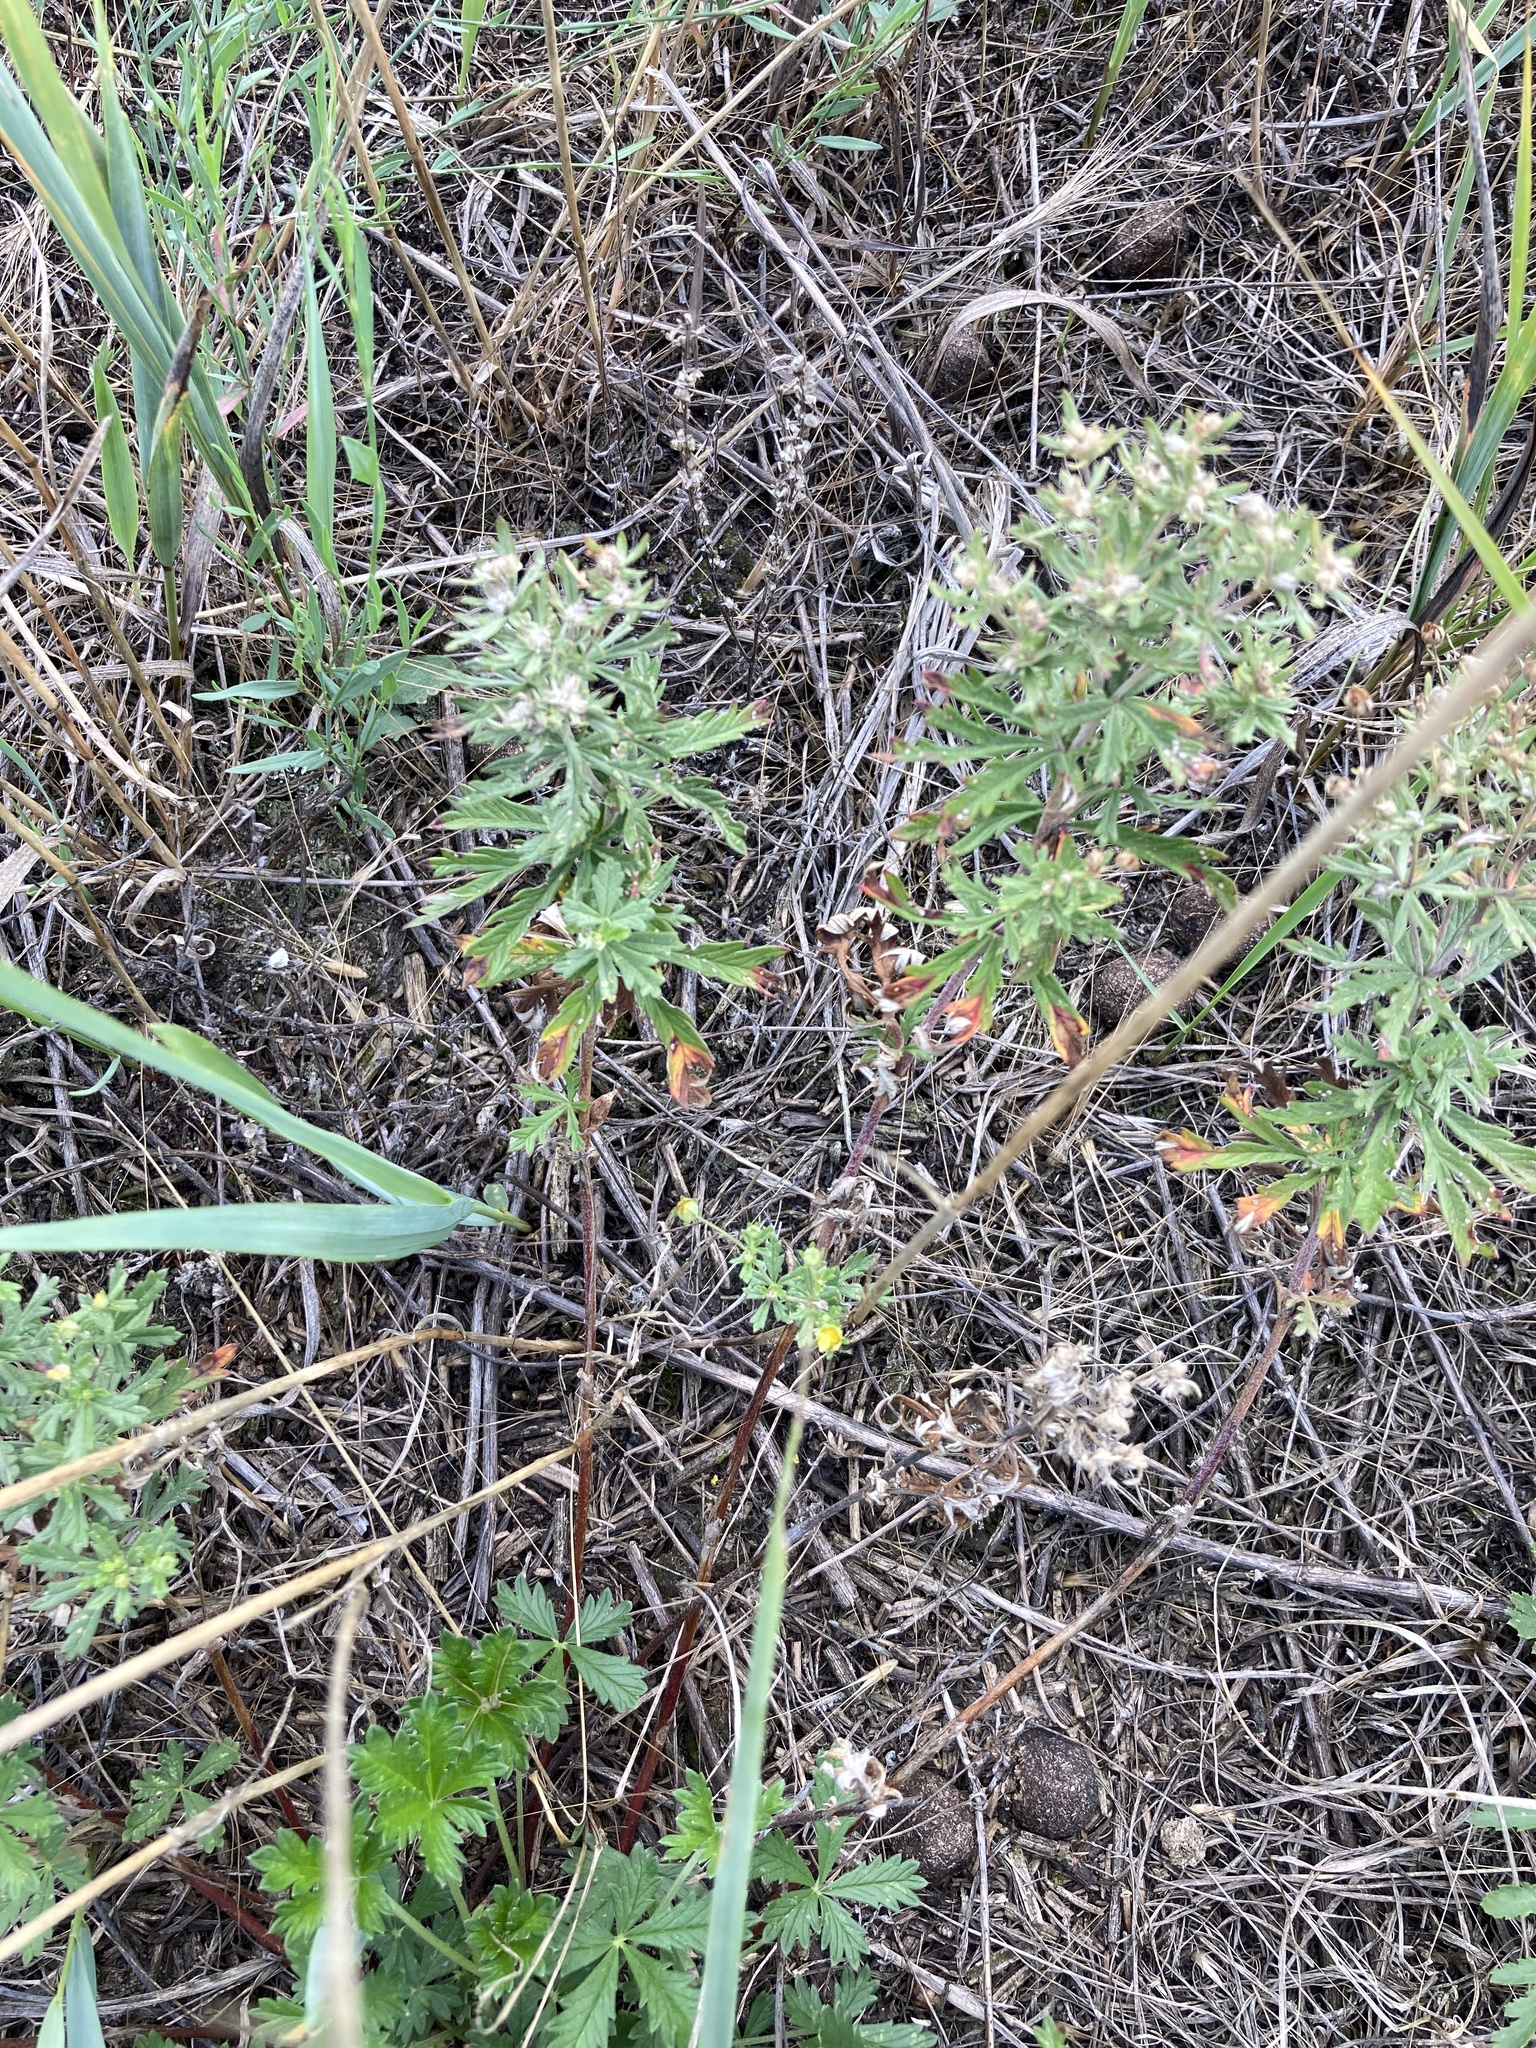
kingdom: Plantae
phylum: Tracheophyta
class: Magnoliopsida
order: Rosales
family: Rosaceae
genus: Potentilla
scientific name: Potentilla argentea
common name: Hoary cinquefoil
